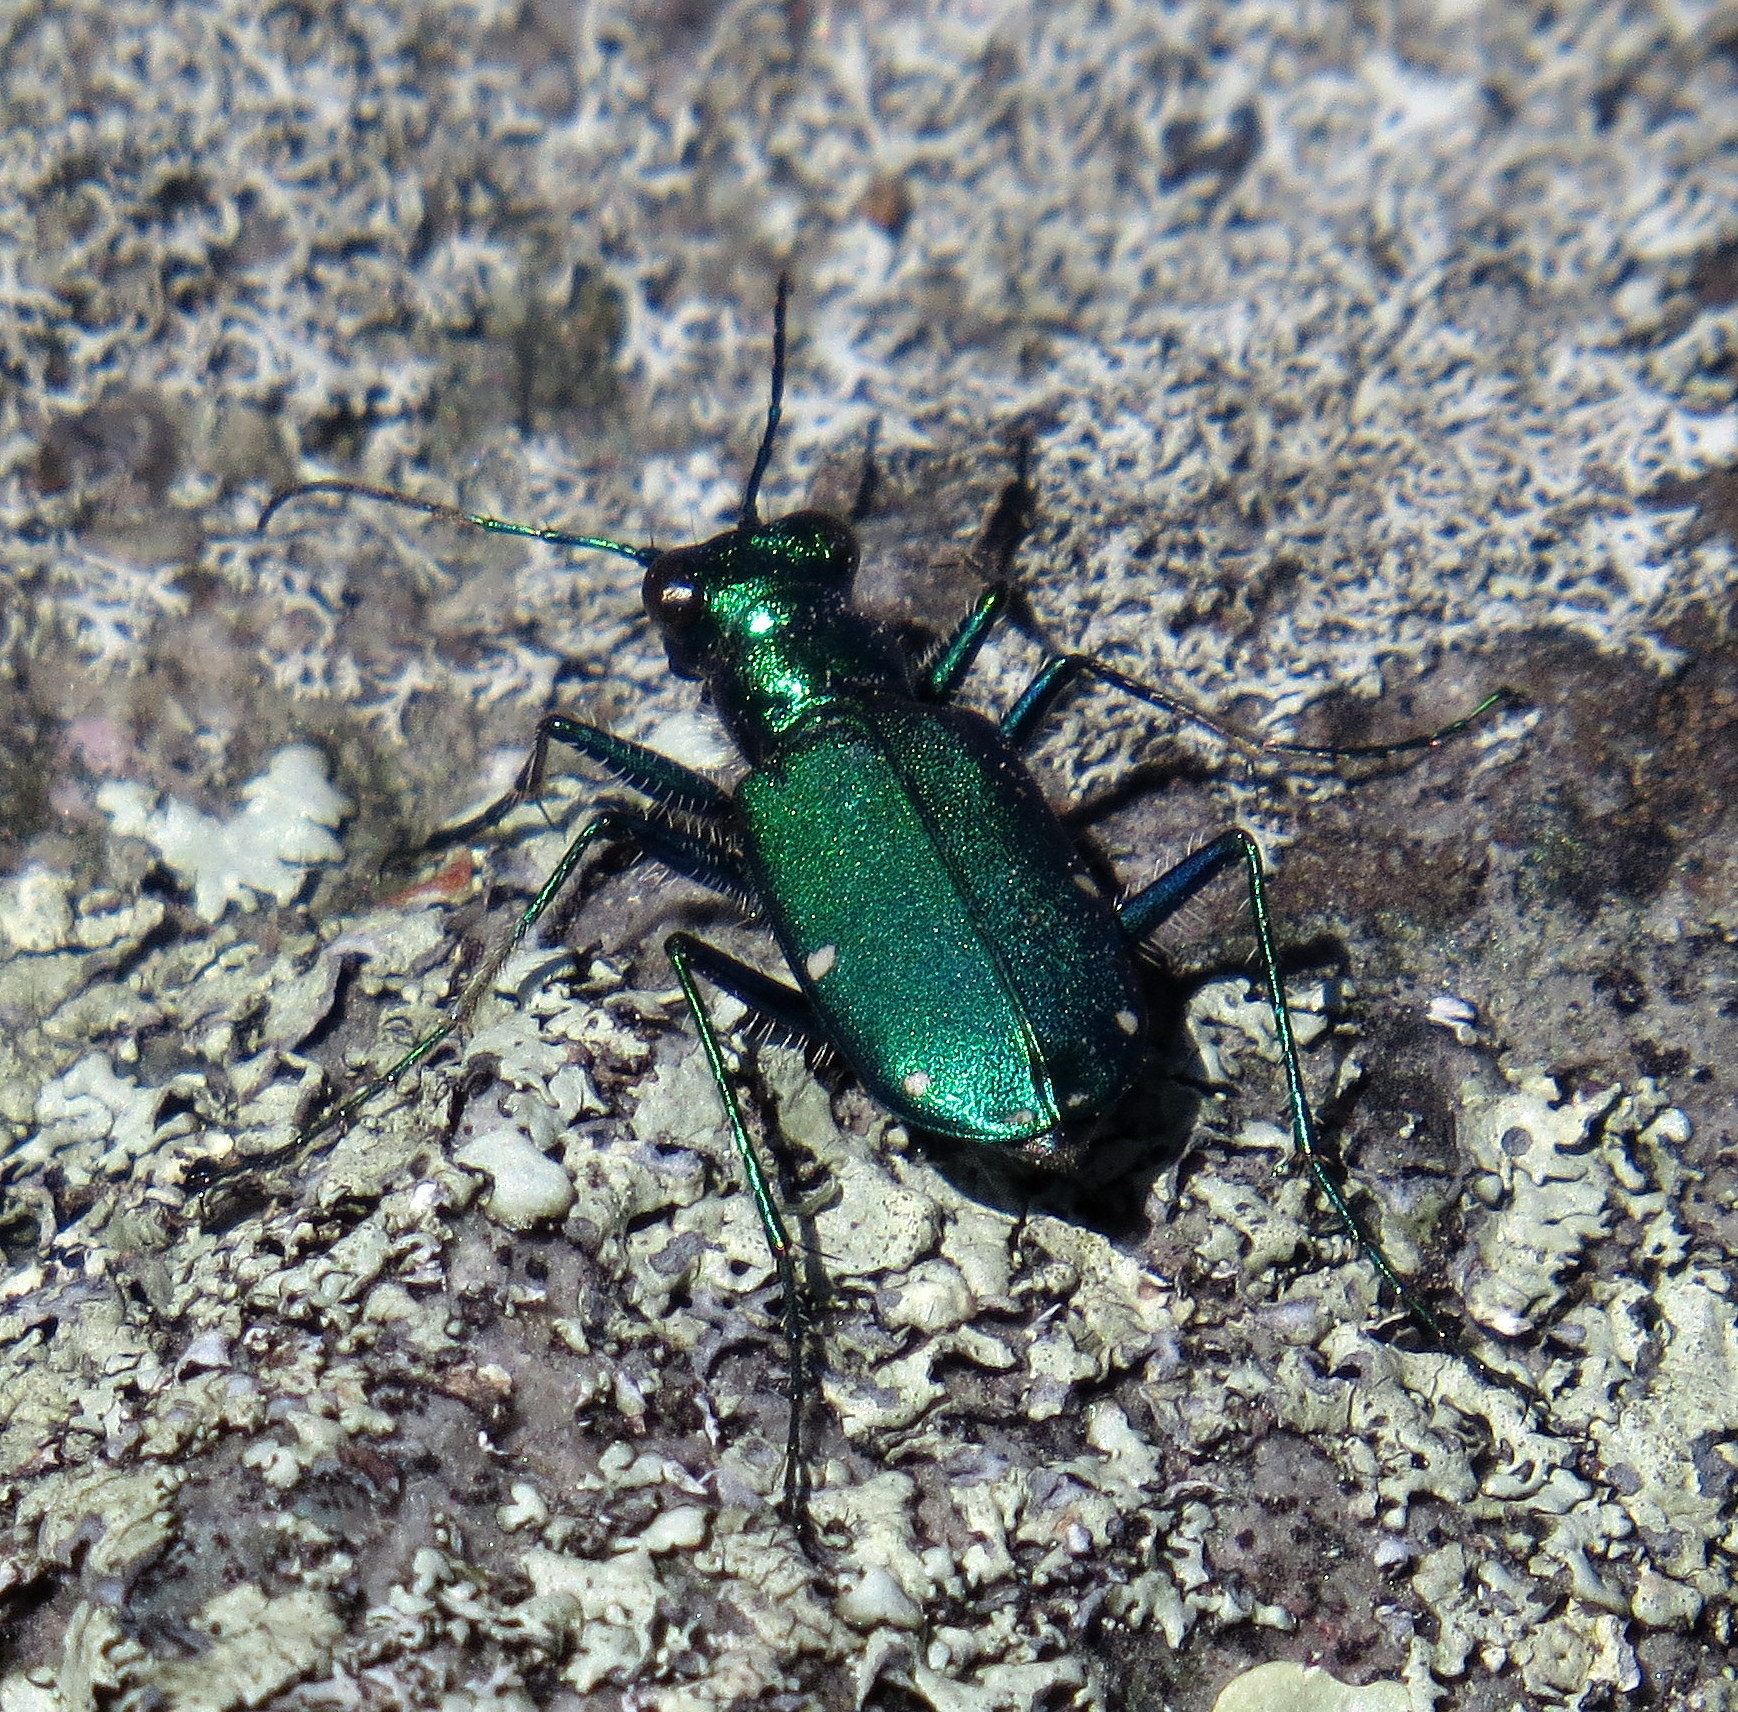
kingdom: Animalia
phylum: Arthropoda
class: Insecta
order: Coleoptera
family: Carabidae
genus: Cicindela
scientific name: Cicindela sexguttata
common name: Six-spotted tiger beetle
